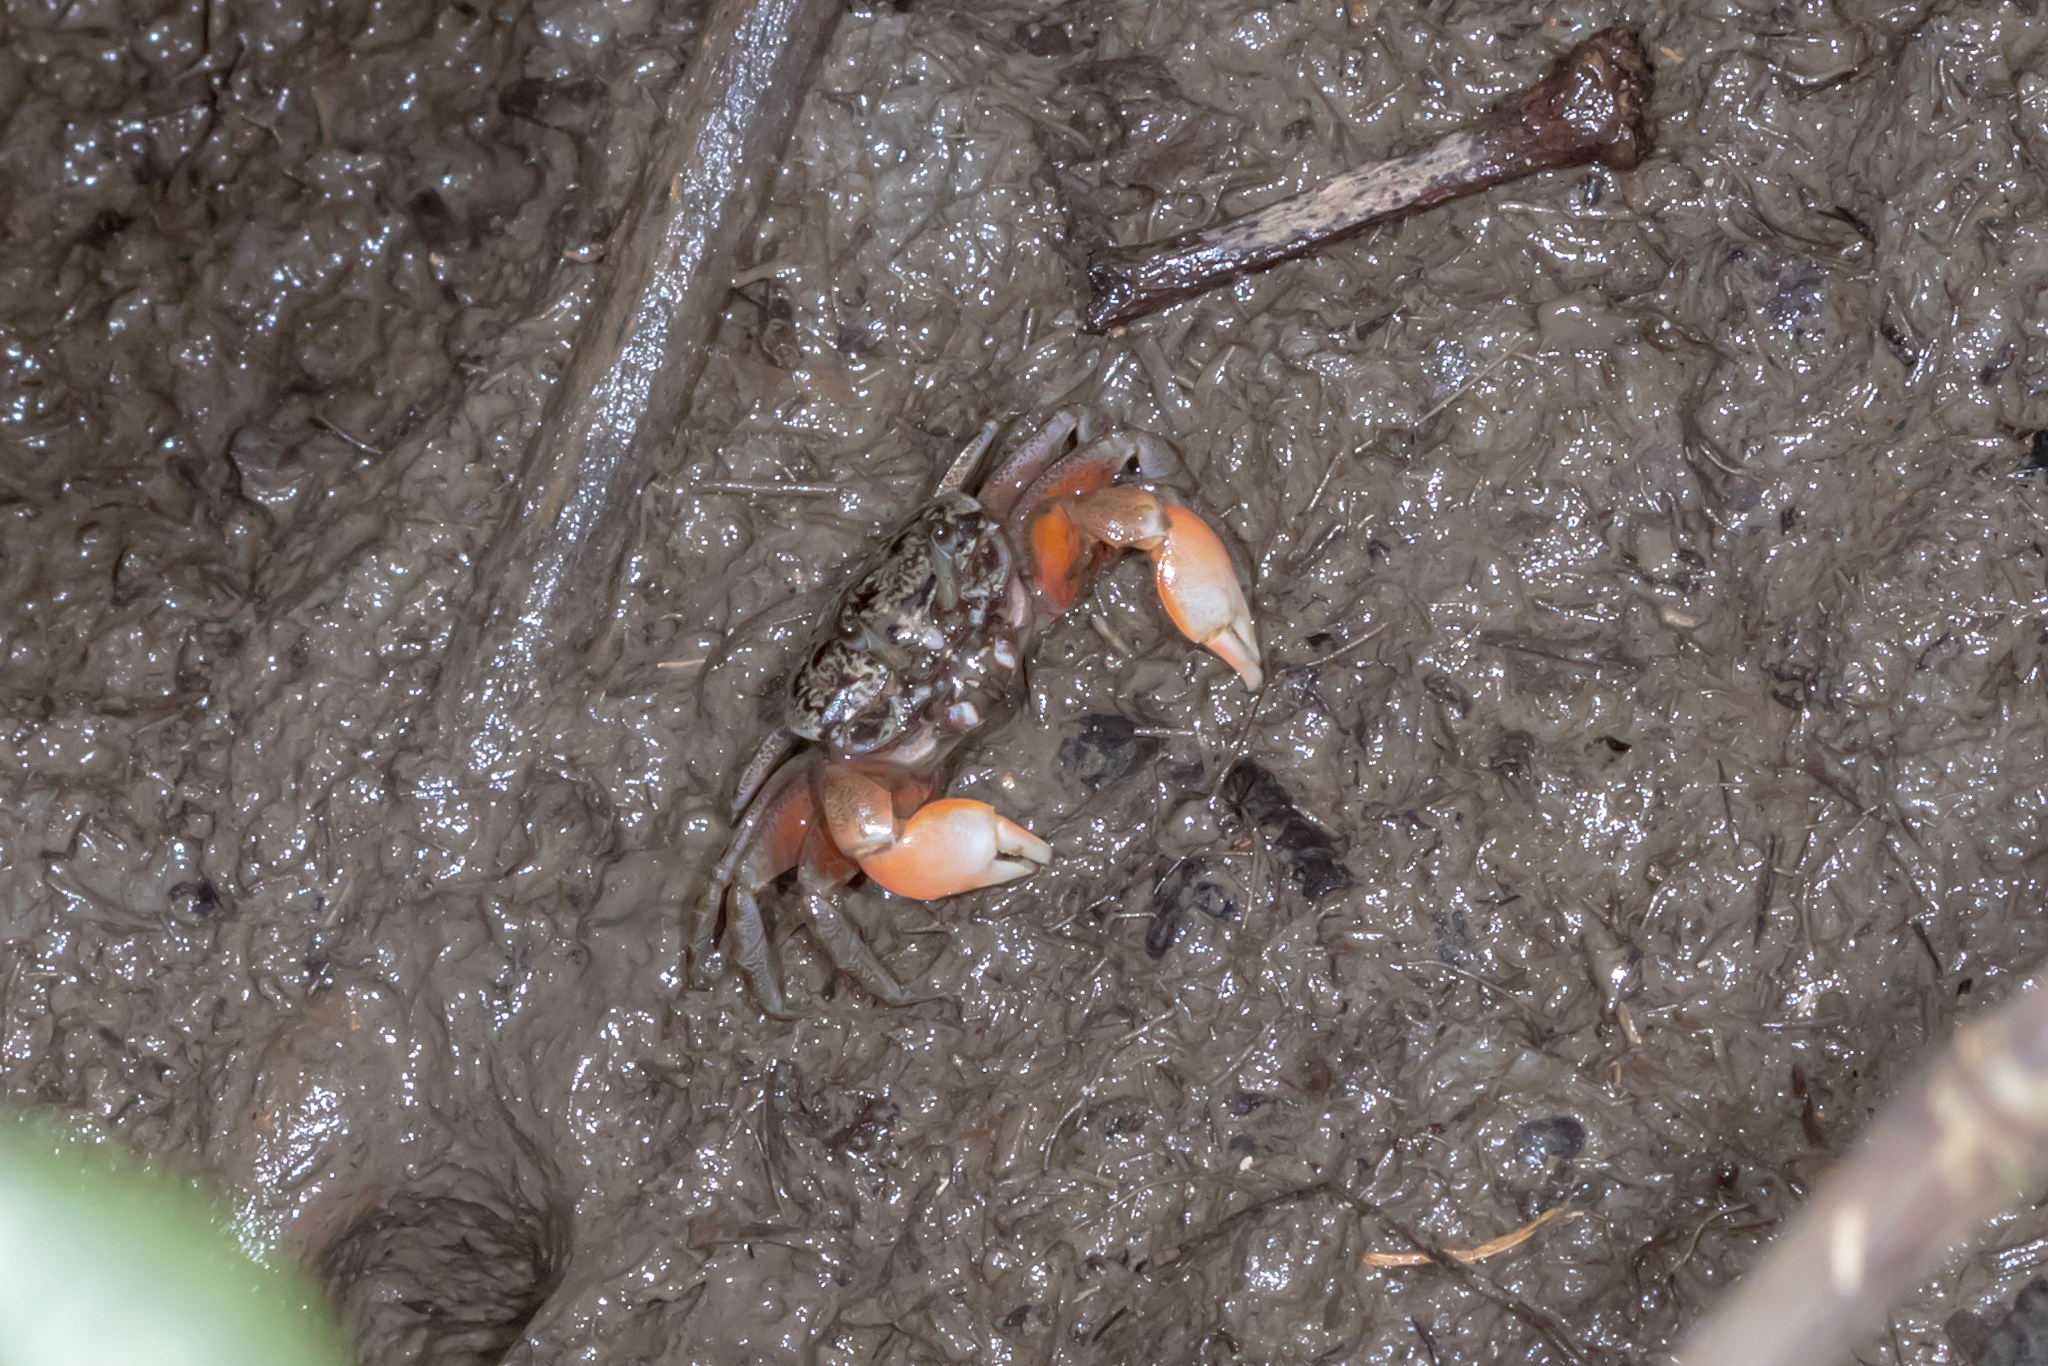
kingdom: Animalia
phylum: Arthropoda
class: Malacostraca
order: Decapoda
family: Heloeciidae
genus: Heloecius
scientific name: Heloecius cordiformis
